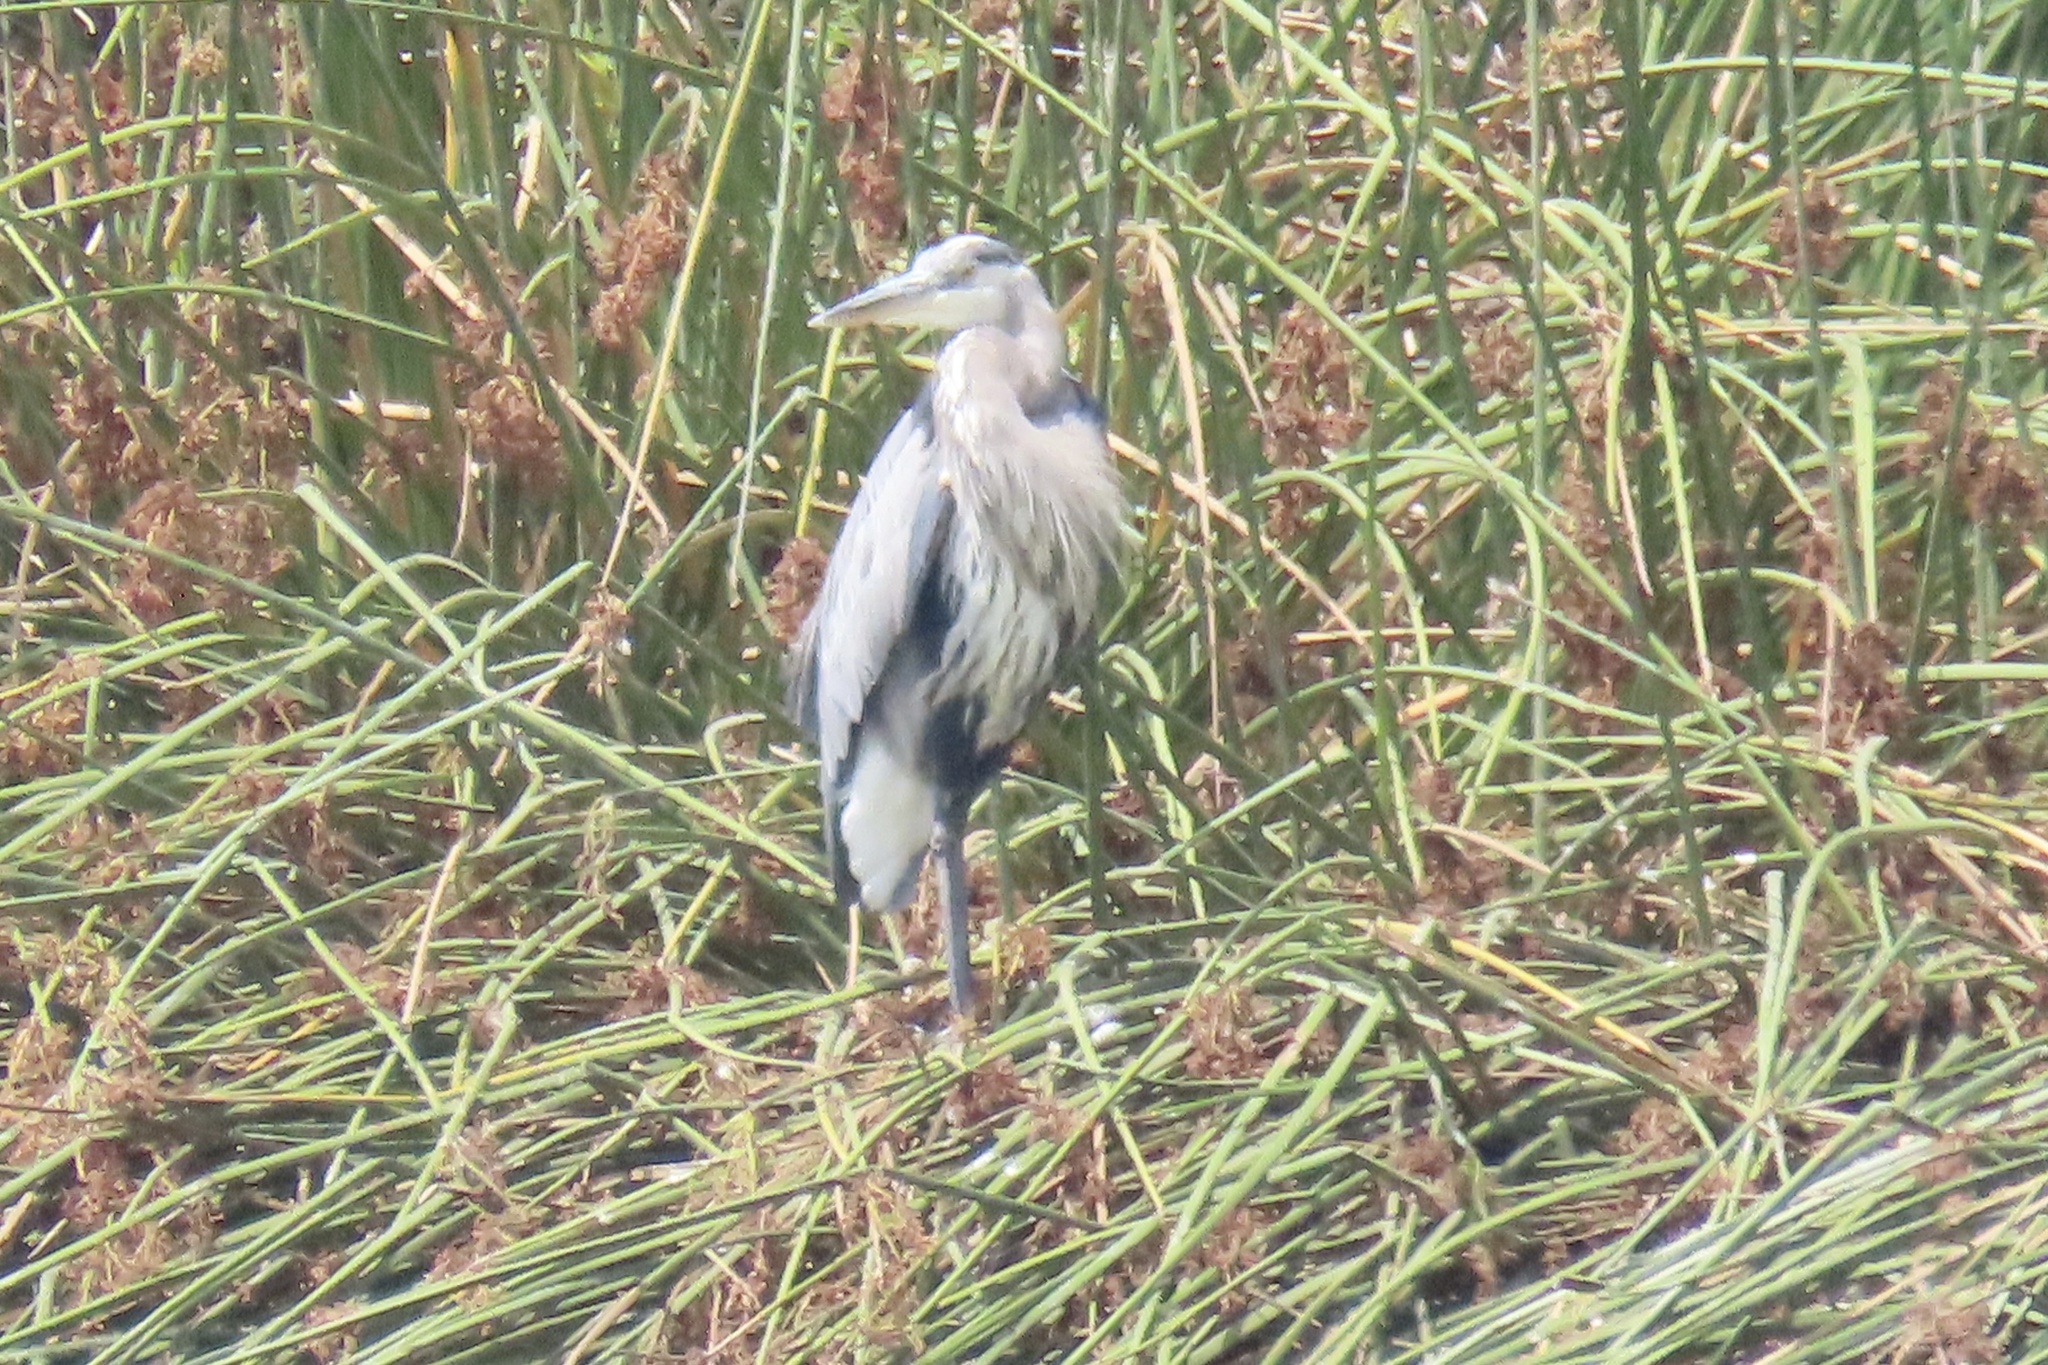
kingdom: Animalia
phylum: Chordata
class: Aves
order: Pelecaniformes
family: Ardeidae
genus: Ardea
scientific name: Ardea herodias
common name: Great blue heron
